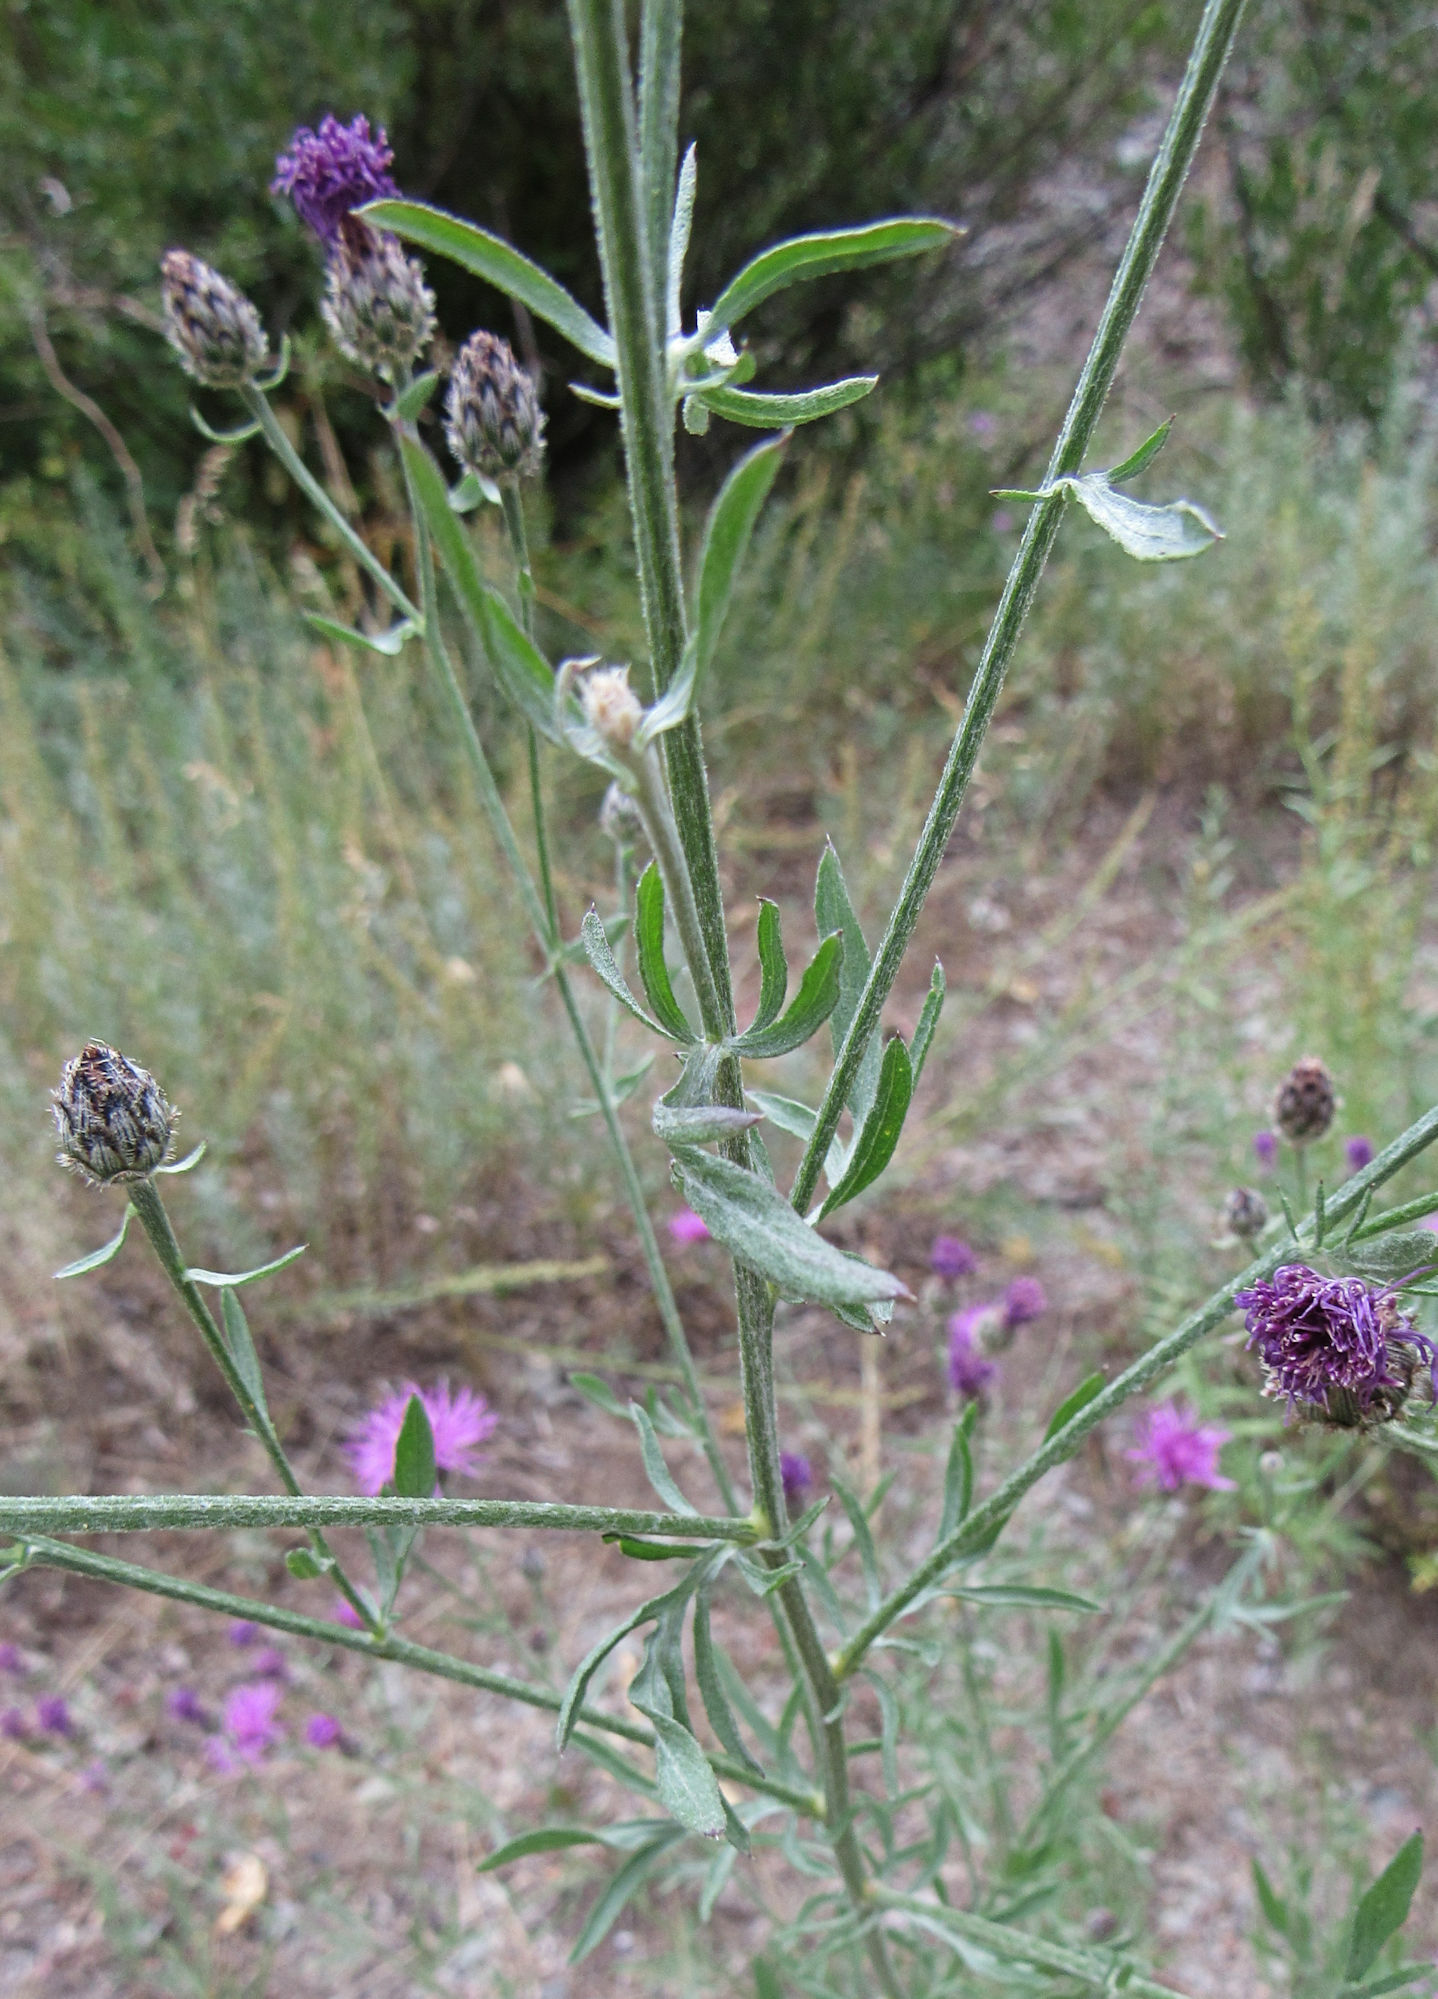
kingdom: Plantae
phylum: Tracheophyta
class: Magnoliopsida
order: Asterales
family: Asteraceae
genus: Centaurea
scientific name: Centaurea stoebe
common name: Spotted knapweed
